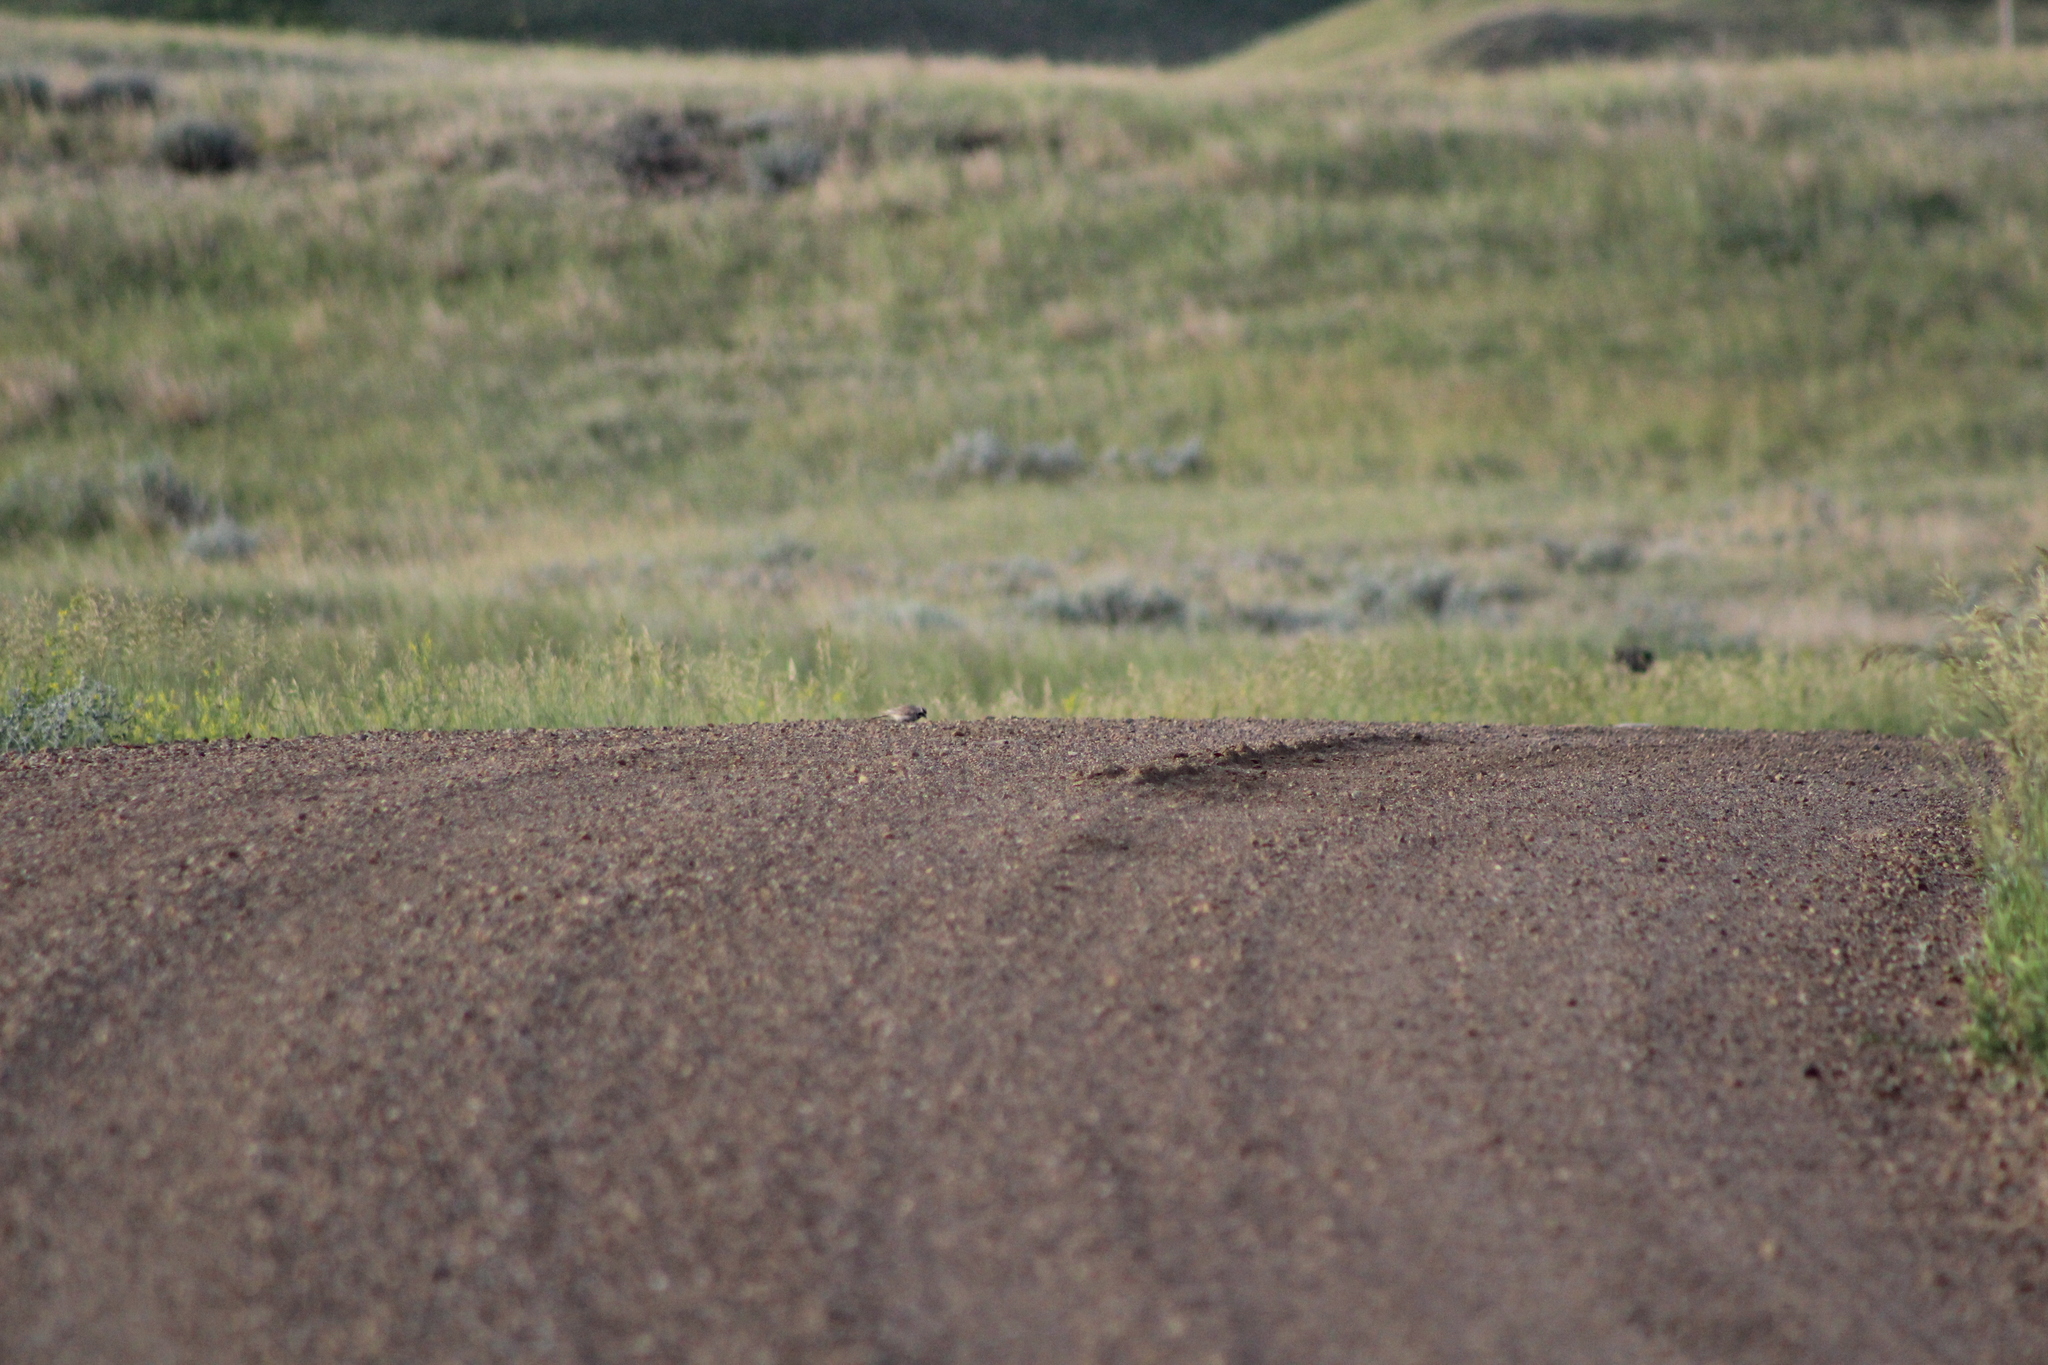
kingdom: Animalia
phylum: Chordata
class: Aves
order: Passeriformes
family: Alaudidae
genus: Eremophila
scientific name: Eremophila alpestris
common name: Horned lark
